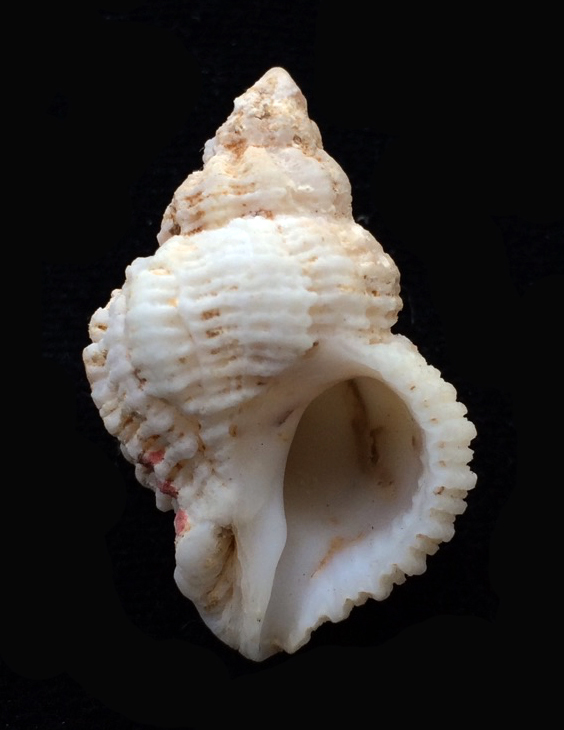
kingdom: Animalia
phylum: Mollusca
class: Gastropoda
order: Neogastropoda
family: Muricidae
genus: Coralliophila
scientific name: Coralliophila meyendorffii
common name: Lamellose coral shell
